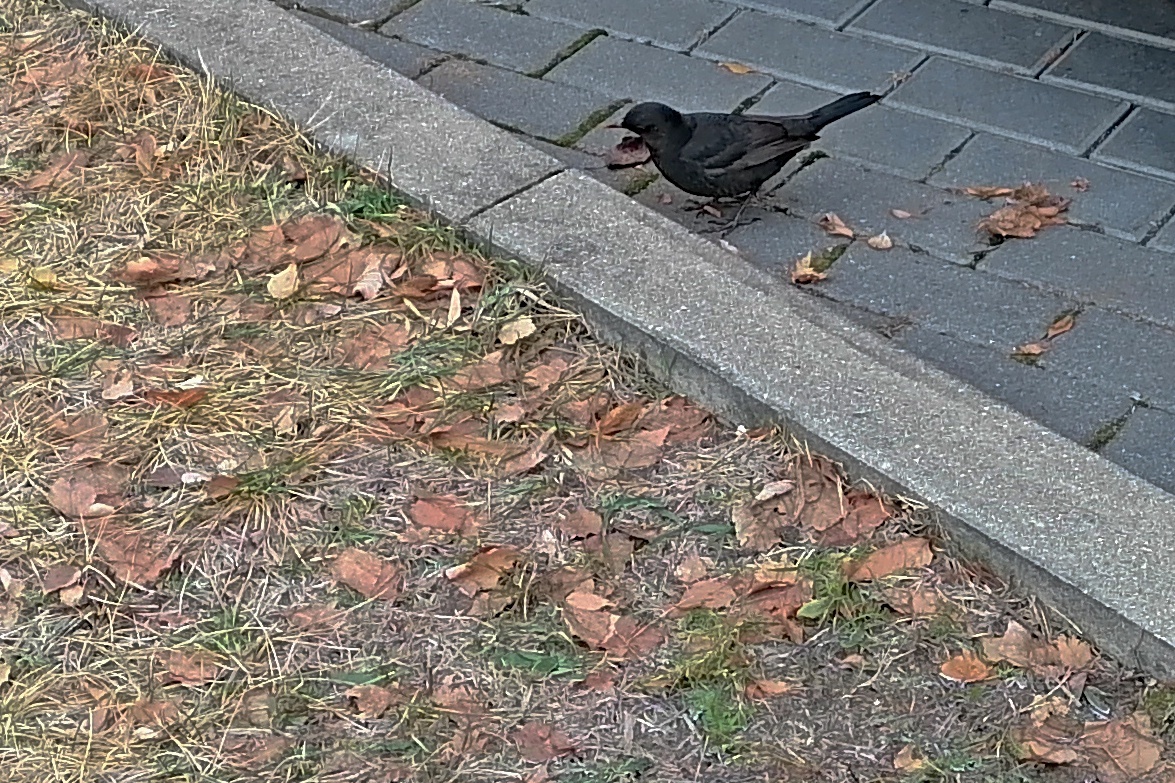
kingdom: Animalia
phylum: Chordata
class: Aves
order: Passeriformes
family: Turdidae
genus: Turdus
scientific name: Turdus merula
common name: Common blackbird
